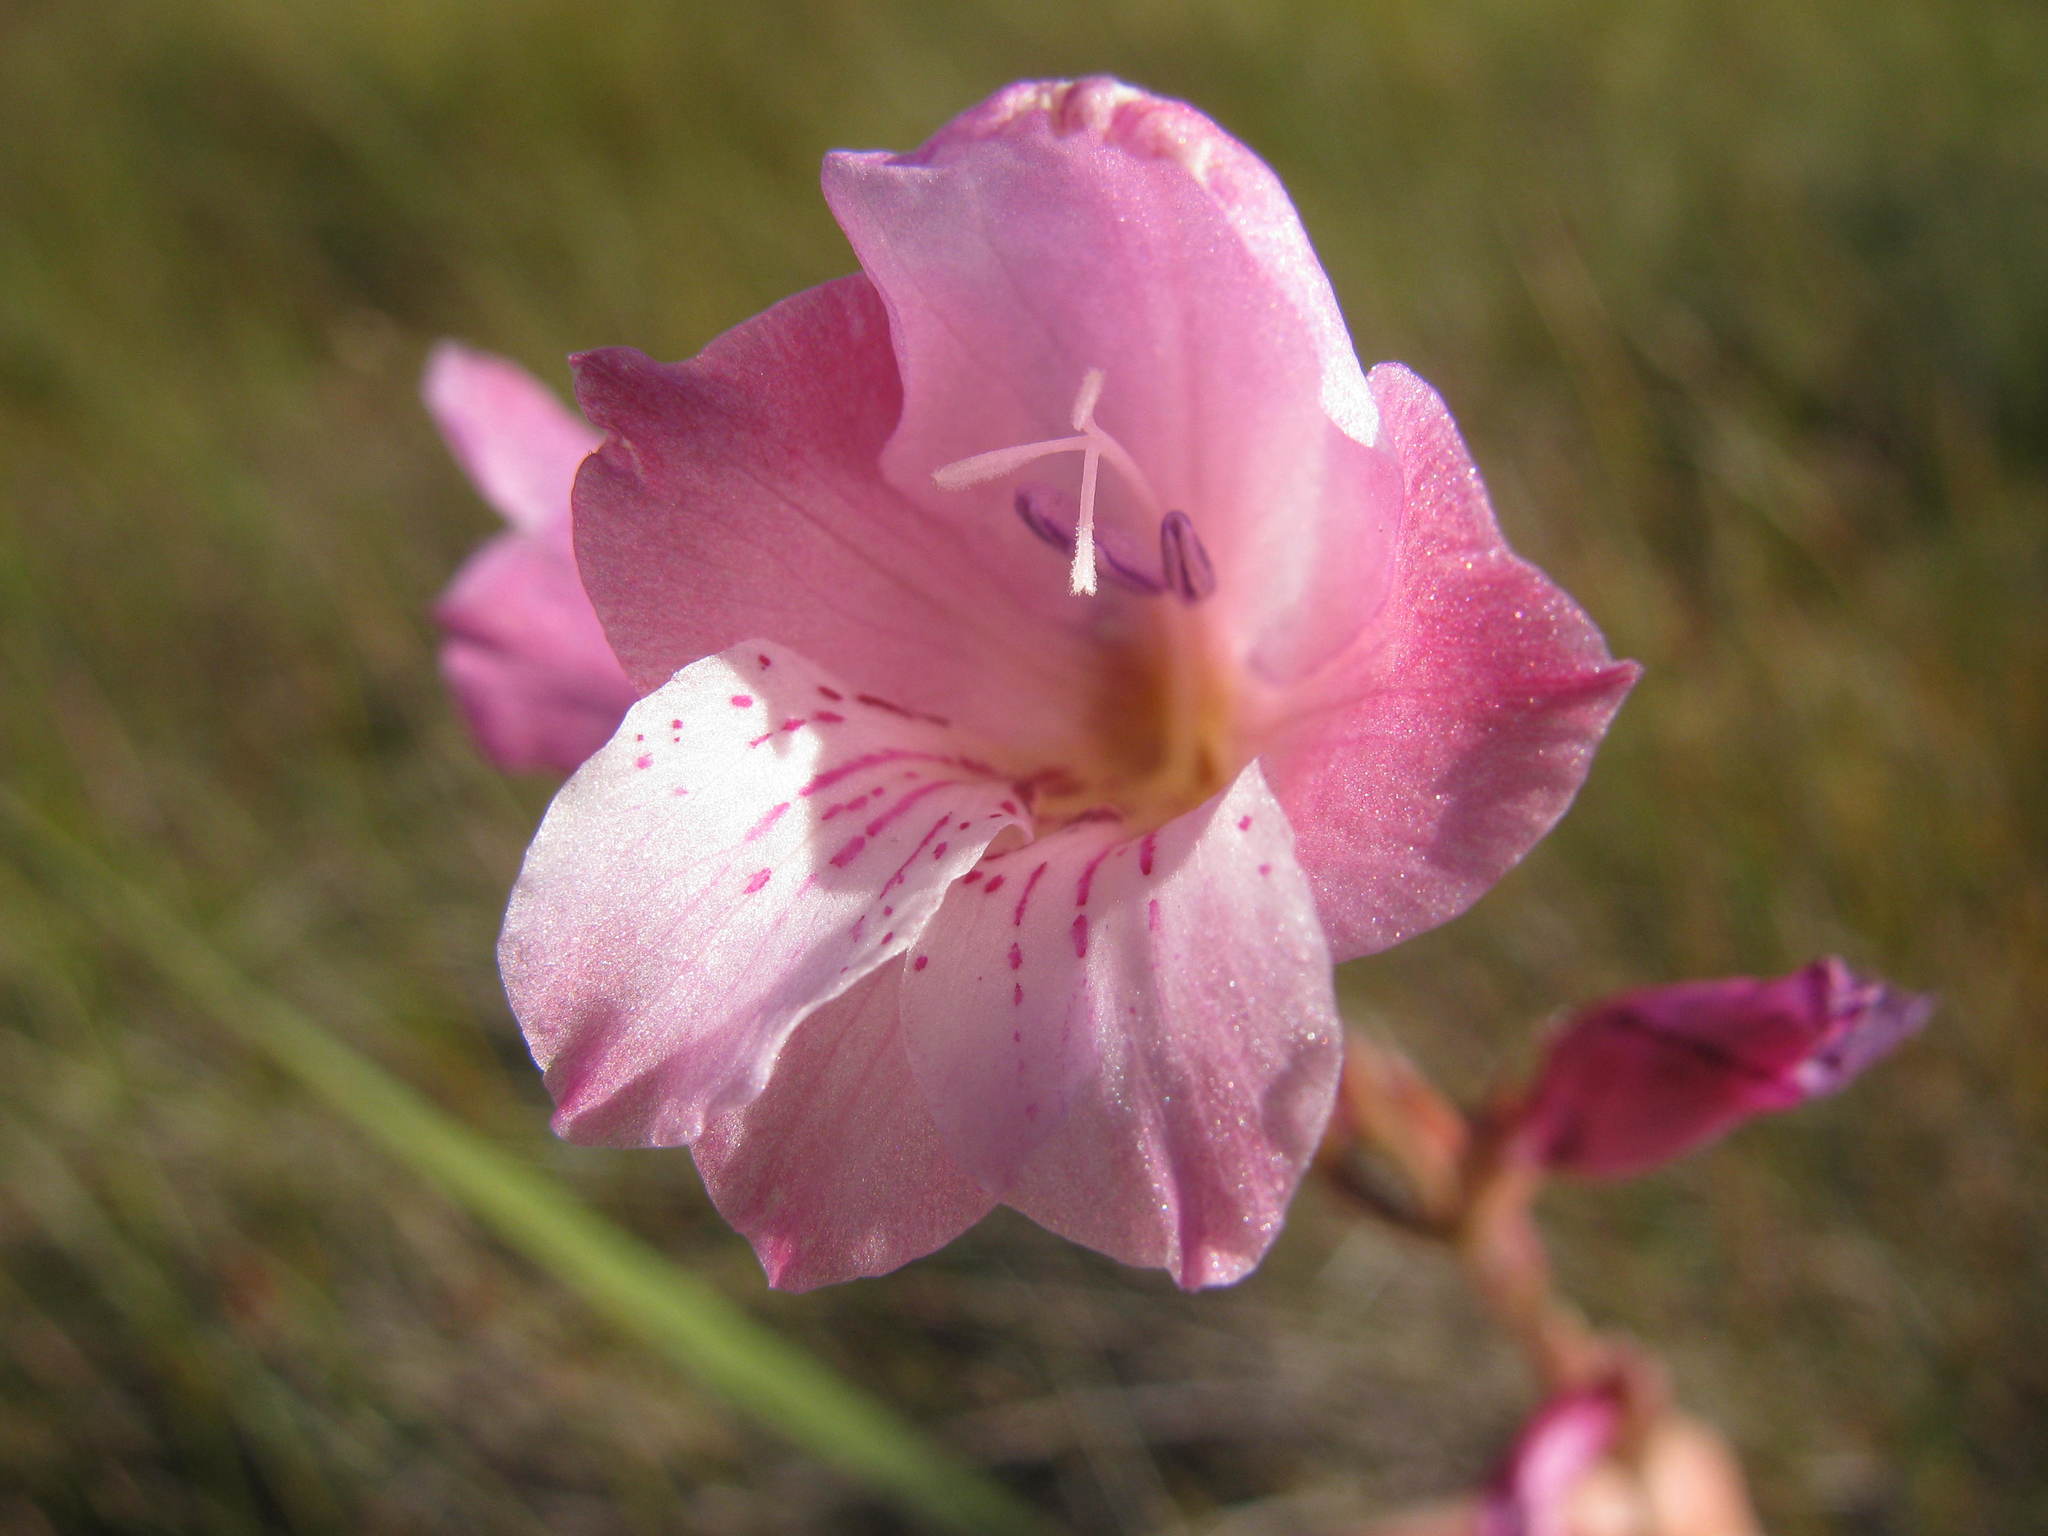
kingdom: Plantae
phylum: Tracheophyta
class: Liliopsida
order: Asparagales
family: Iridaceae
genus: Gladiolus
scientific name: Gladiolus hirsutus
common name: Small pink afrikaner
